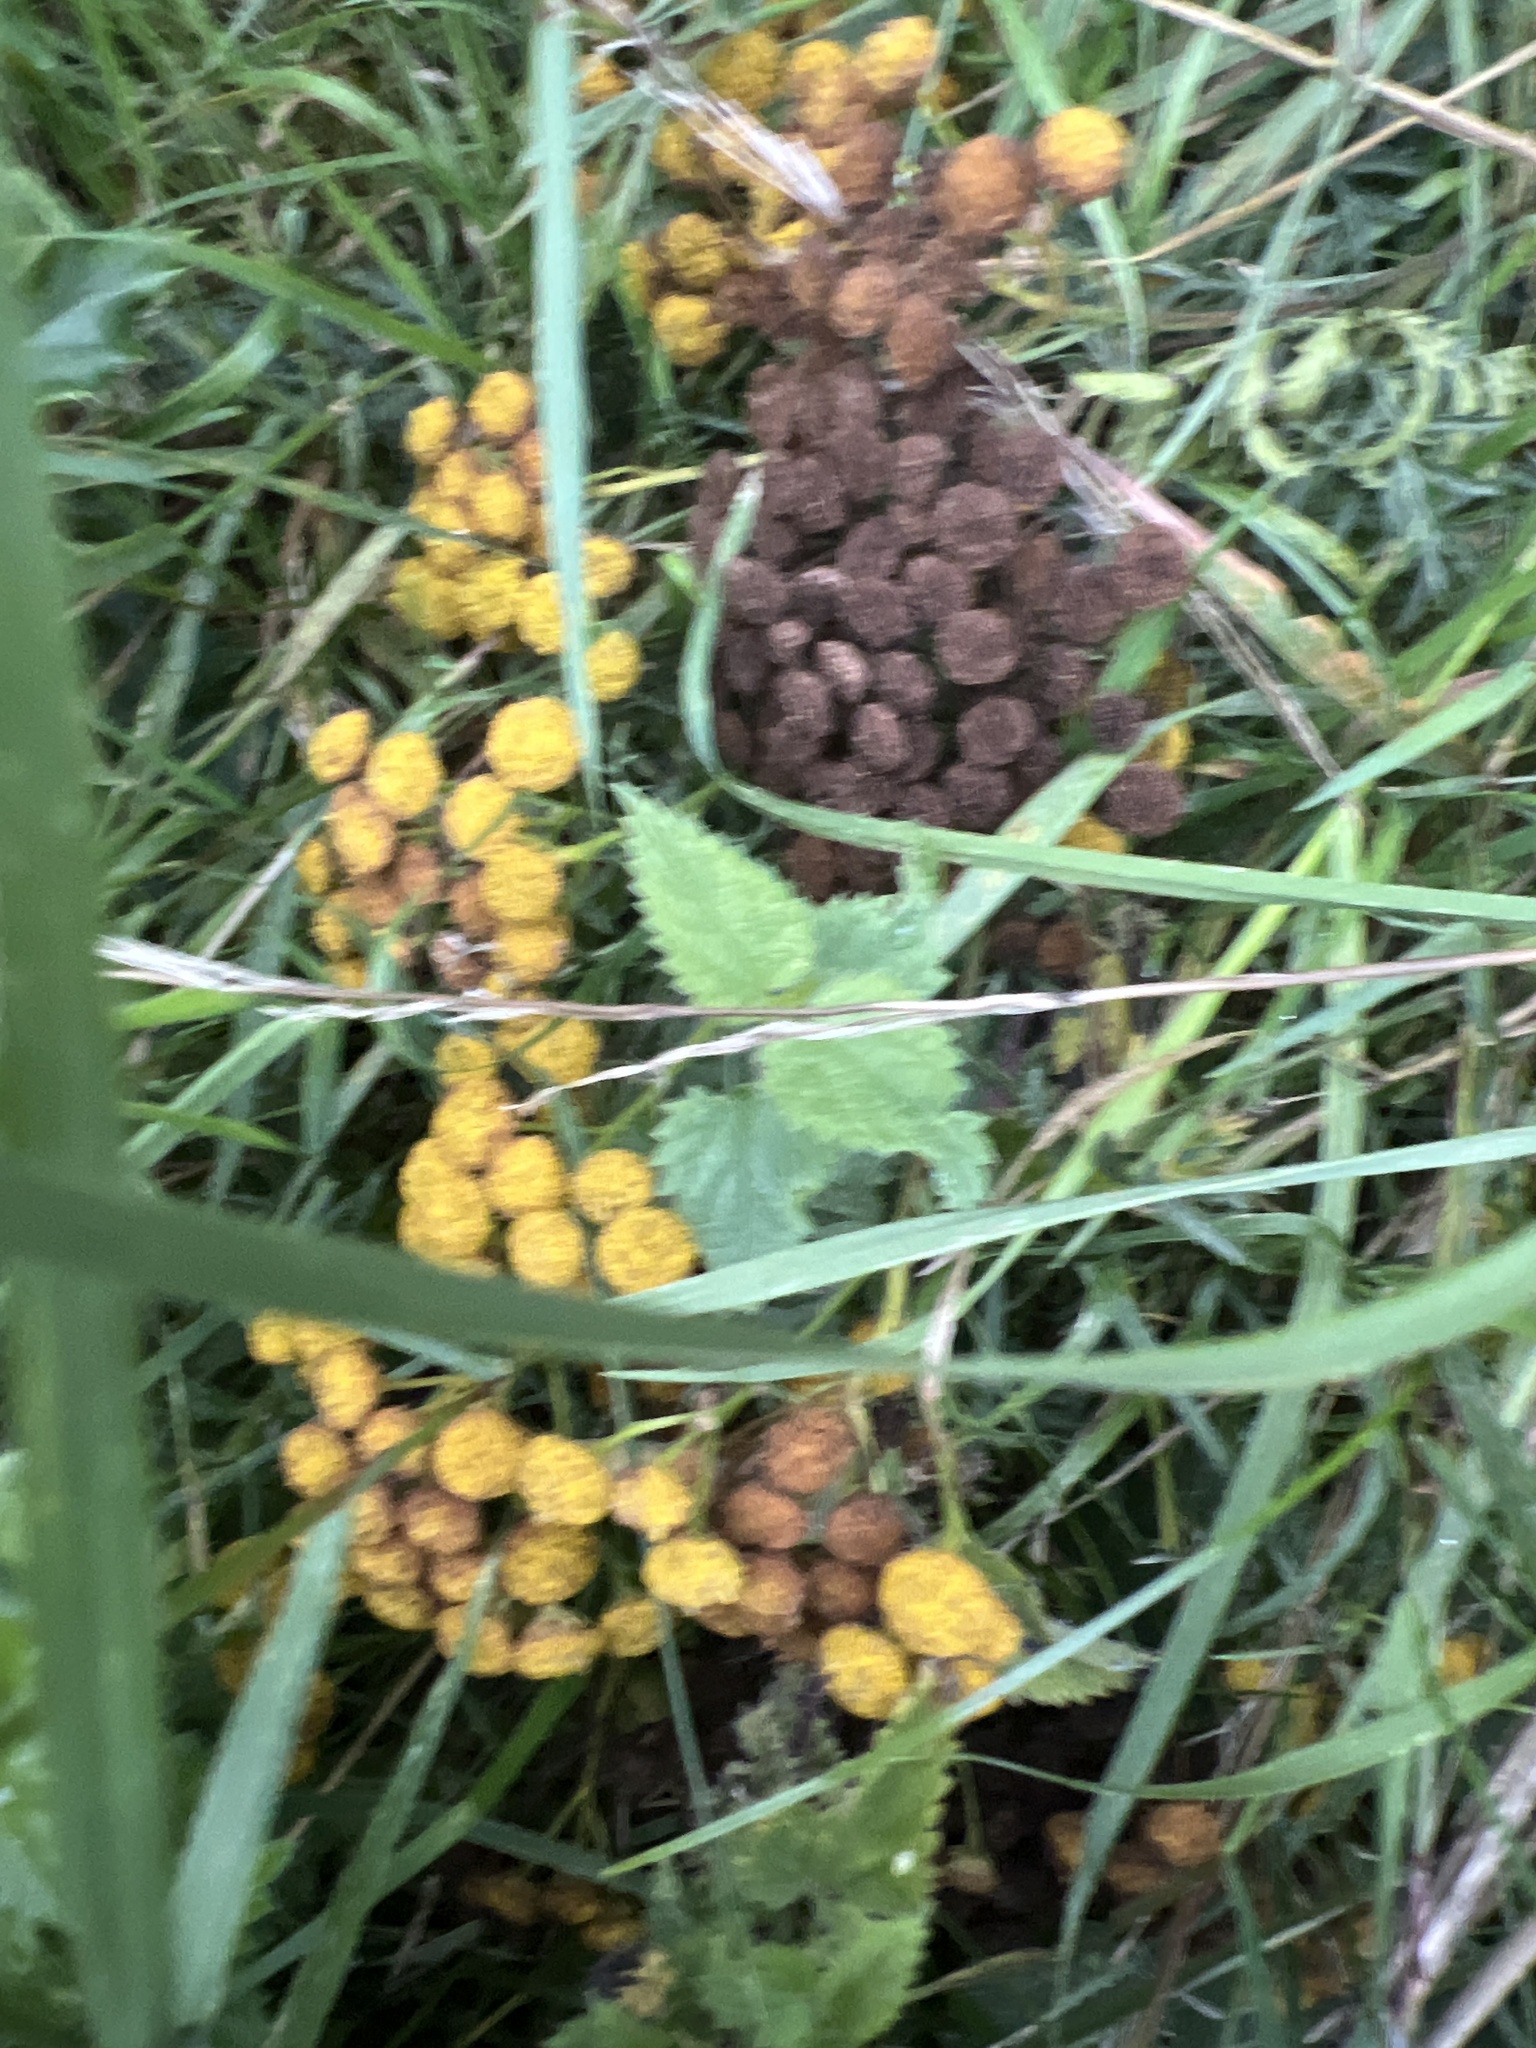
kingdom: Plantae
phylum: Tracheophyta
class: Magnoliopsida
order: Asterales
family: Asteraceae
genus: Tanacetum
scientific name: Tanacetum vulgare
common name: Common tansy
